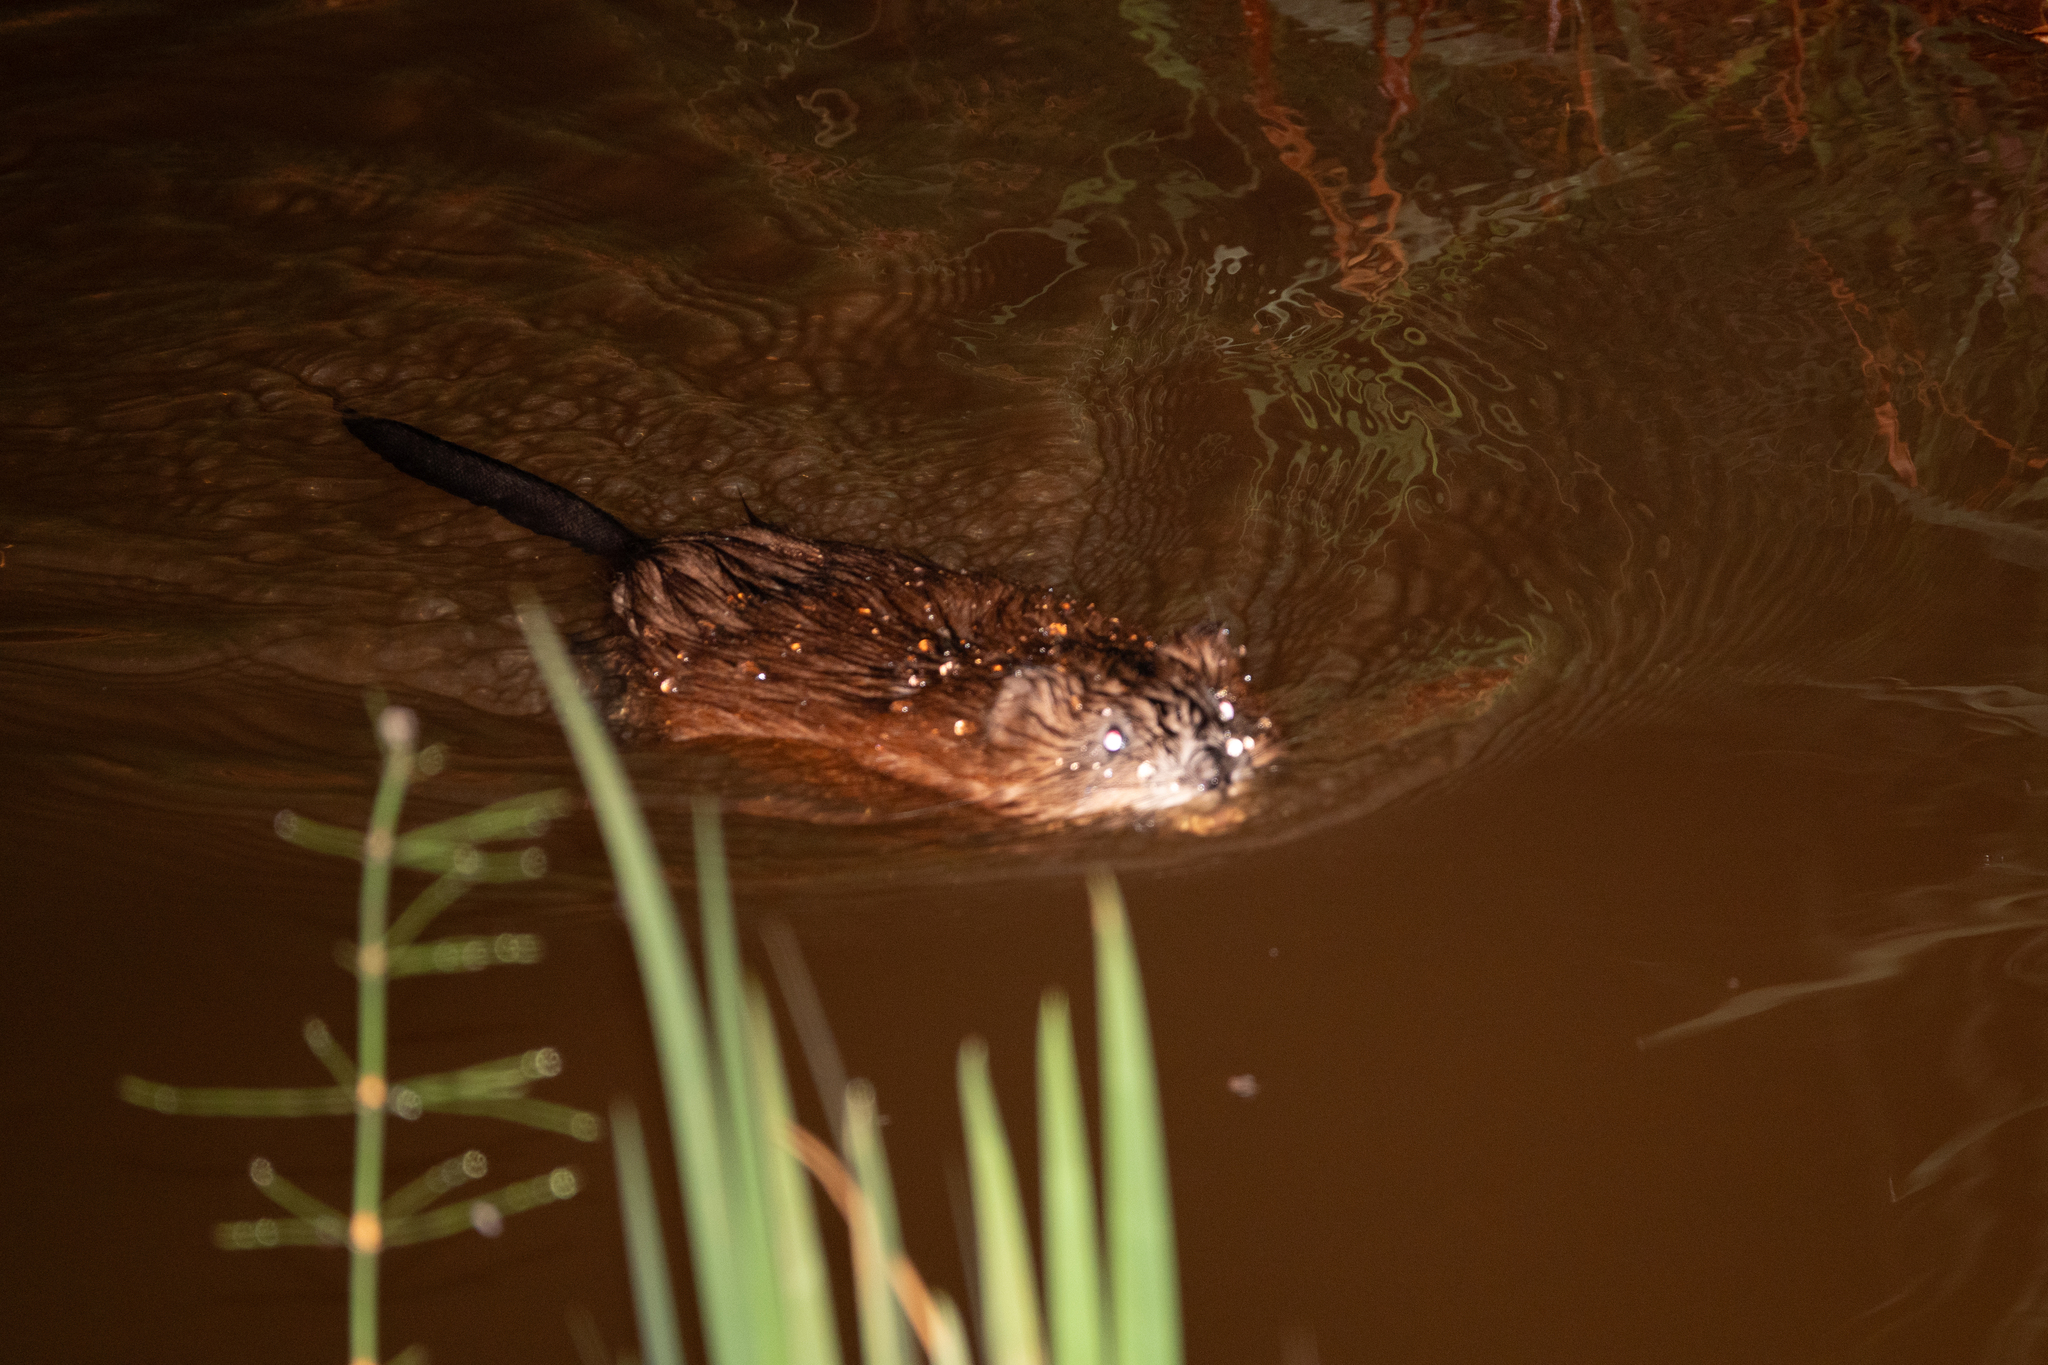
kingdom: Animalia
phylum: Chordata
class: Mammalia
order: Rodentia
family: Cricetidae
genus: Ondatra
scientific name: Ondatra zibethicus
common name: Muskrat
